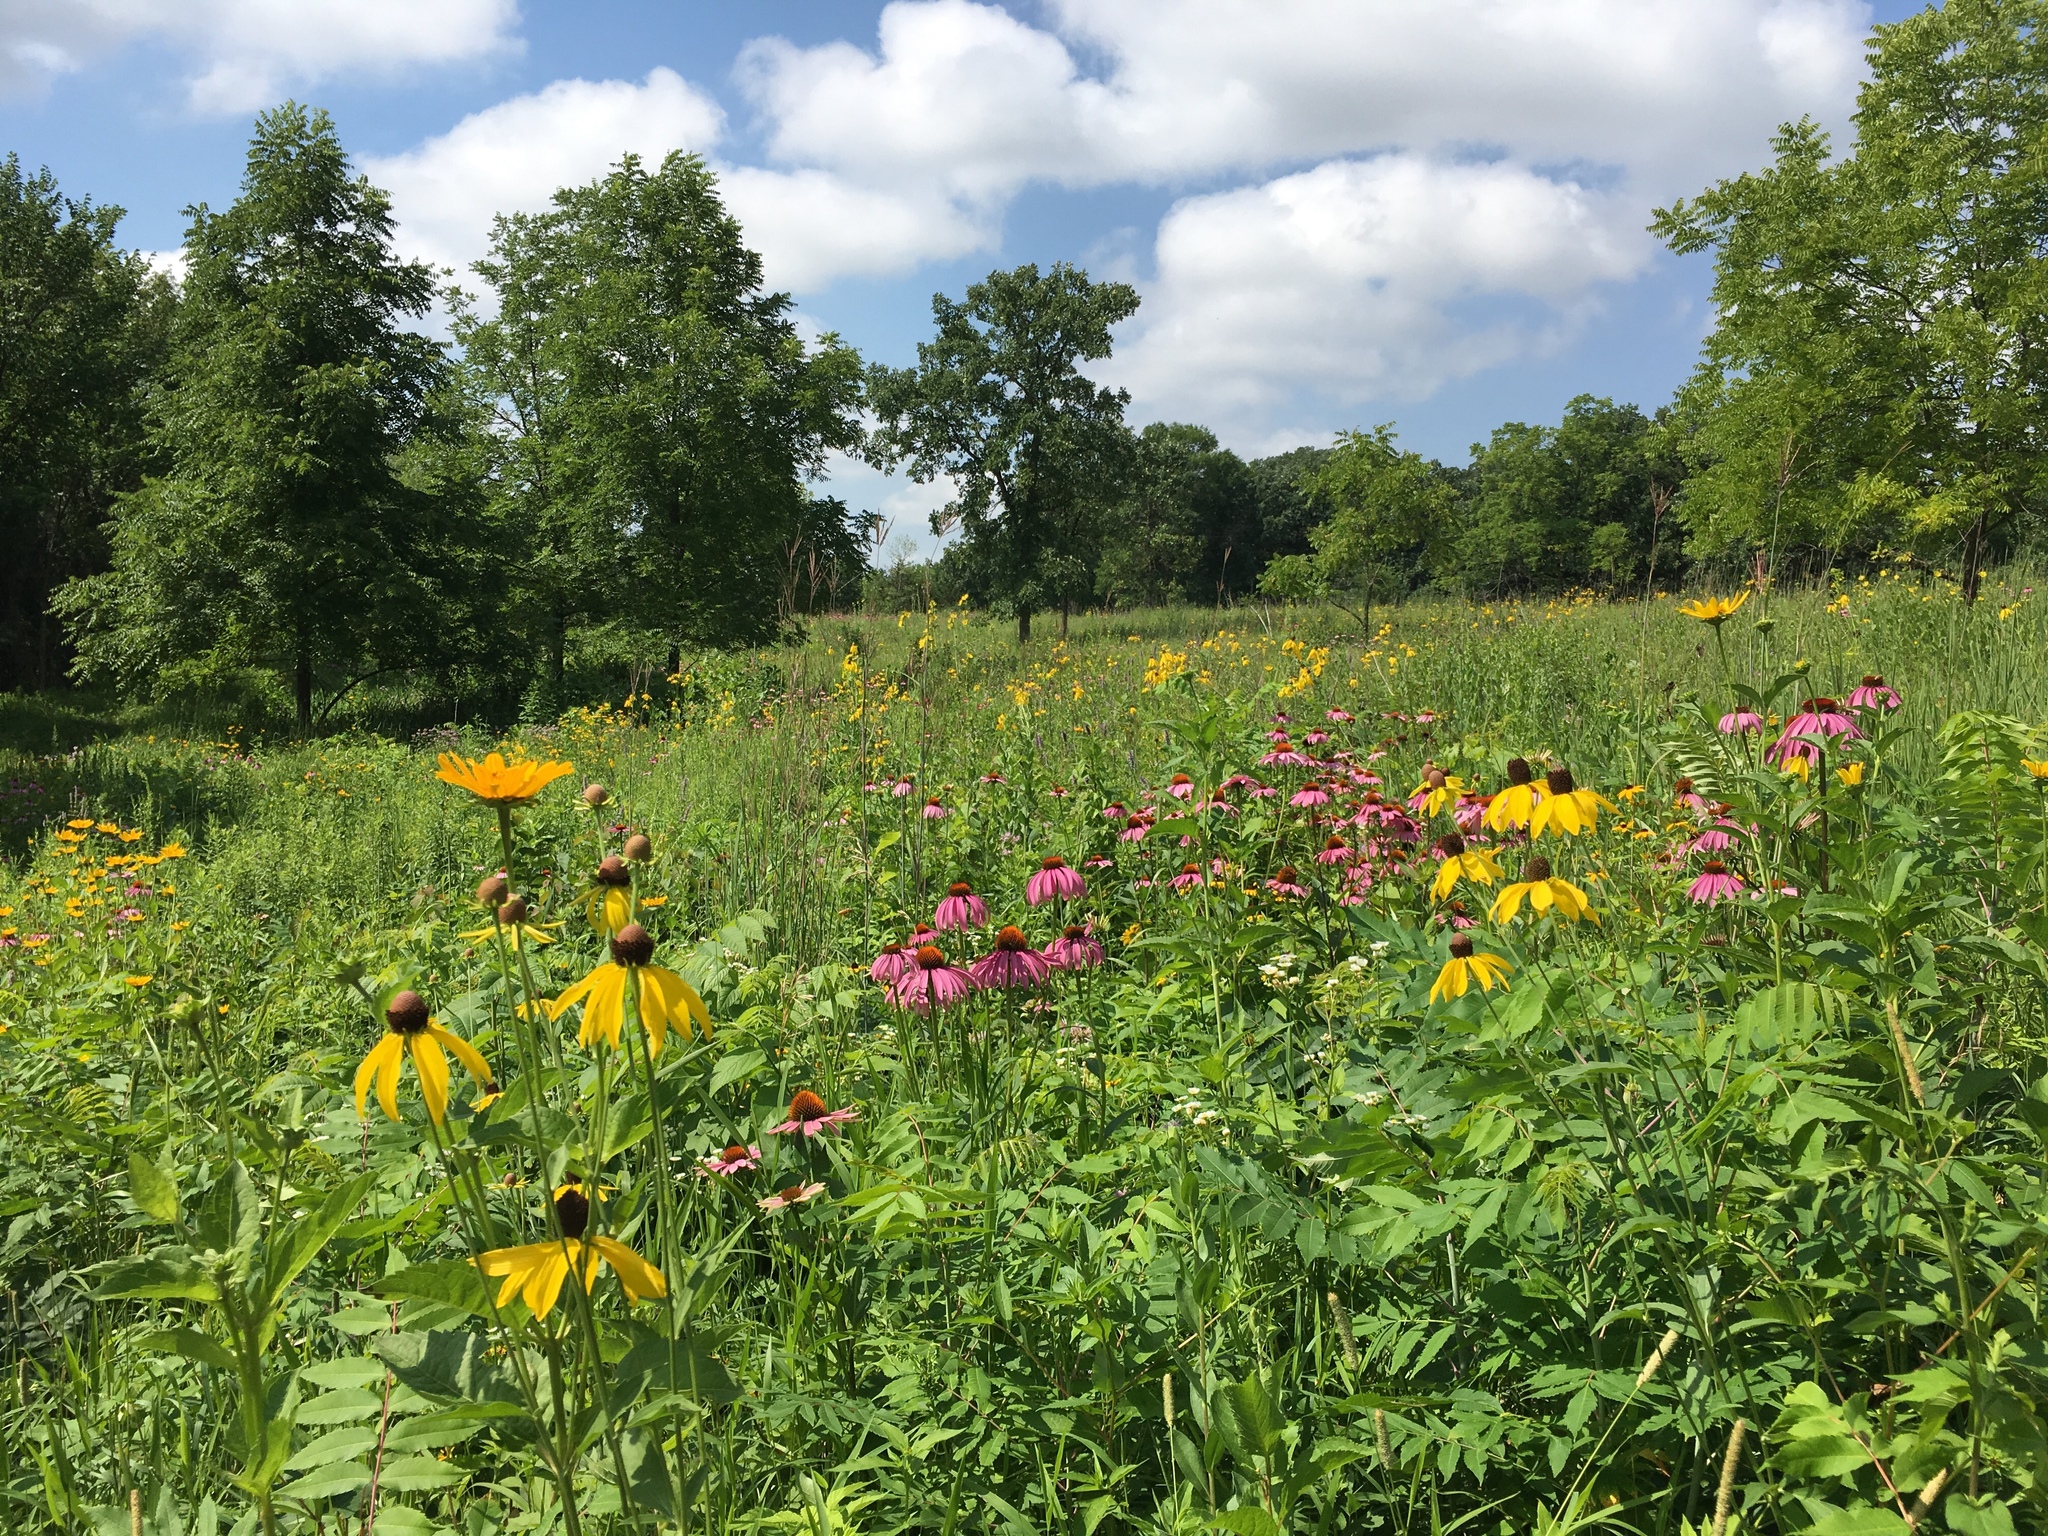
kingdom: Plantae
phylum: Tracheophyta
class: Magnoliopsida
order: Asterales
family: Asteraceae
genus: Ratibida
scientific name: Ratibida pinnata
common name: Drooping prairie-coneflower
